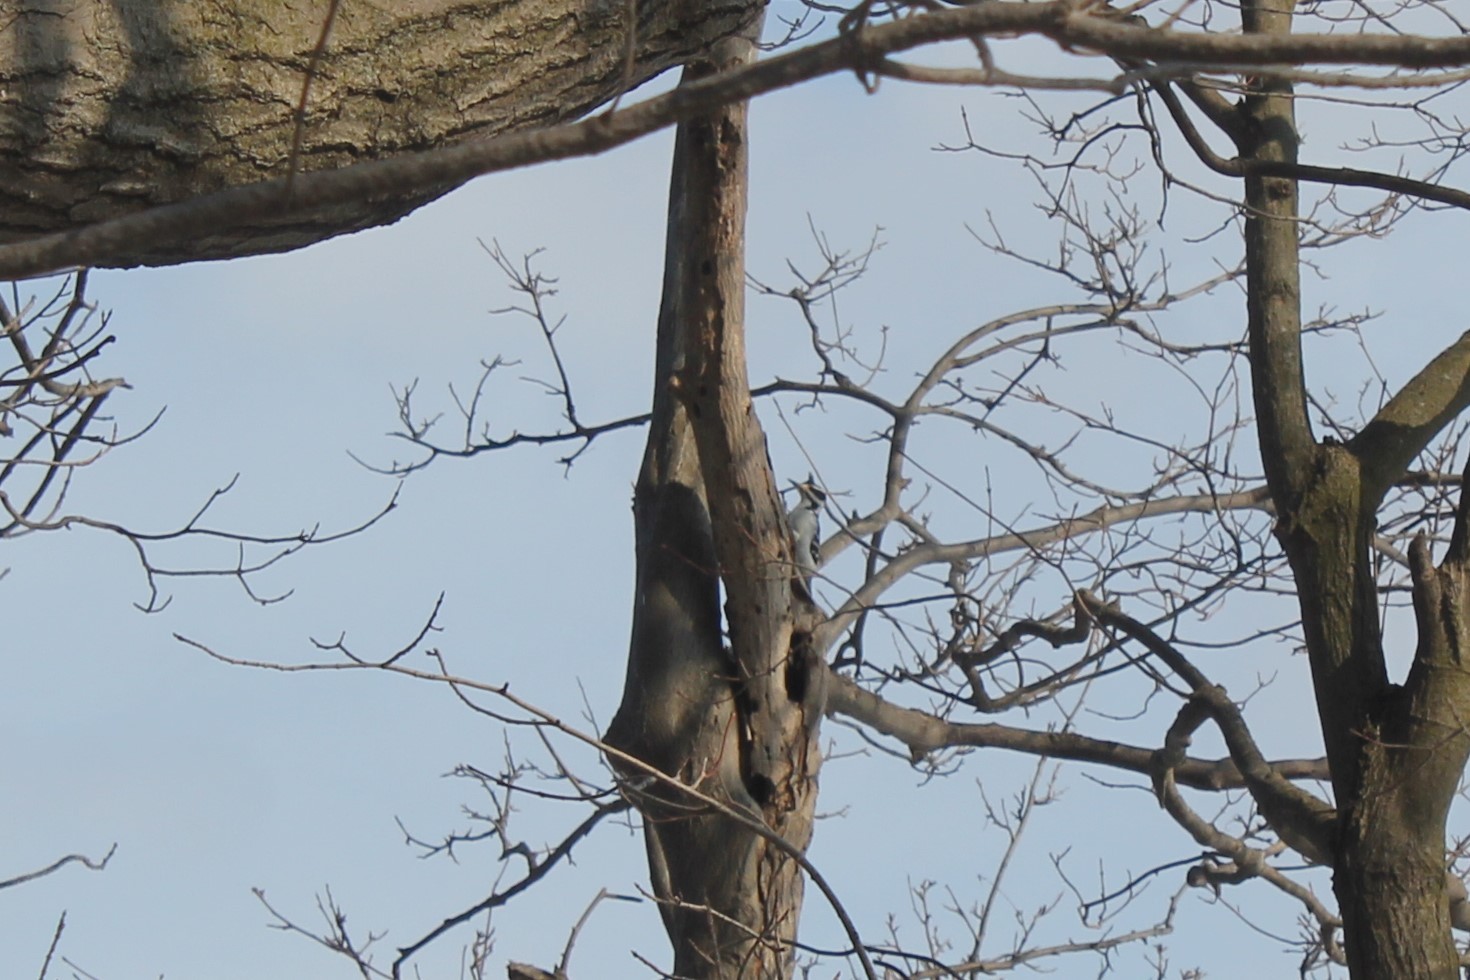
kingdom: Animalia
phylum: Chordata
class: Aves
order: Piciformes
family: Picidae
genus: Leuconotopicus
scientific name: Leuconotopicus villosus
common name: Hairy woodpecker
